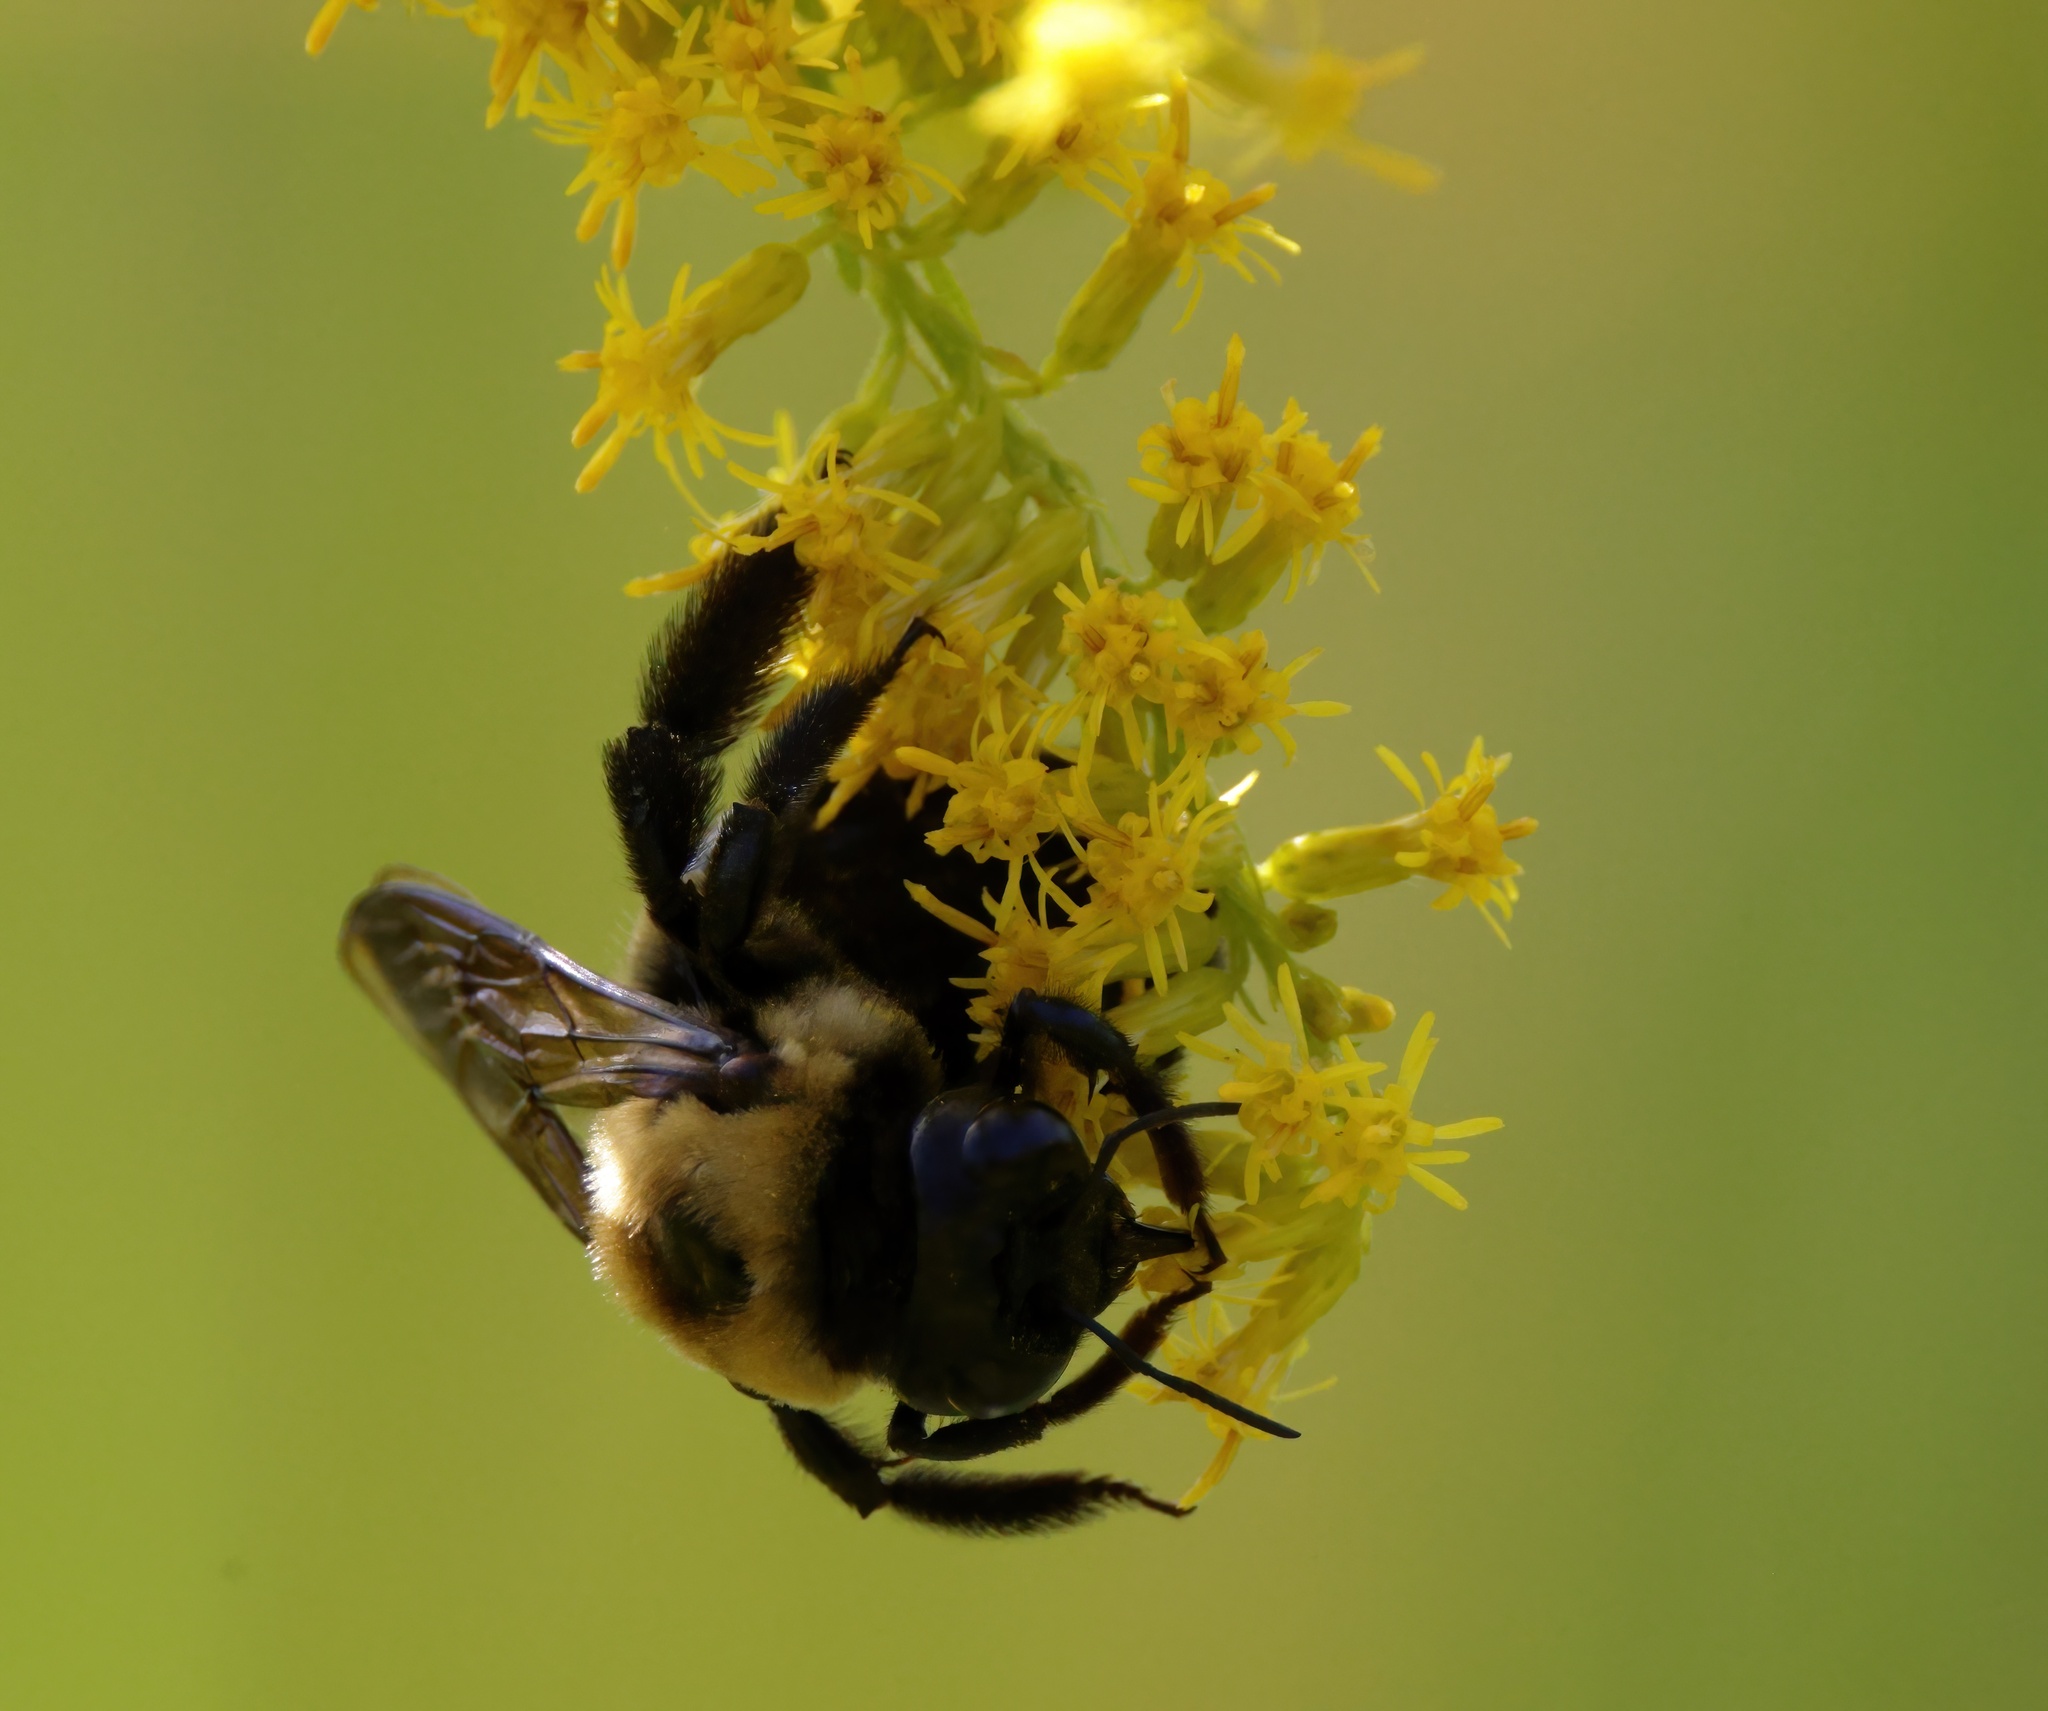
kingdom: Animalia
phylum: Arthropoda
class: Insecta
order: Hymenoptera
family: Apidae
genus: Xylocopa
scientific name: Xylocopa virginica
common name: Carpenter bee
